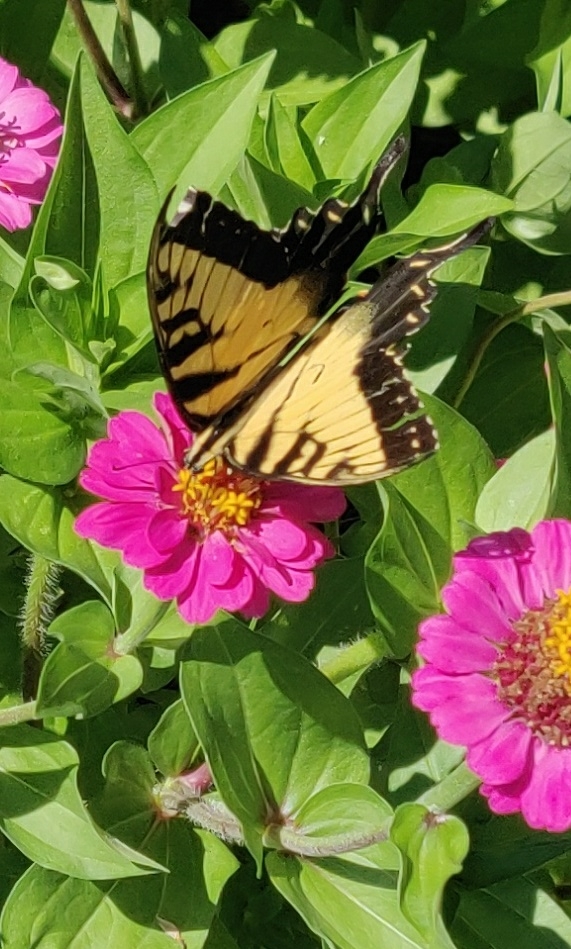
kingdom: Animalia
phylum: Arthropoda
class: Insecta
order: Lepidoptera
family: Papilionidae
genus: Papilio
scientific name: Papilio glaucus
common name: Tiger swallowtail
